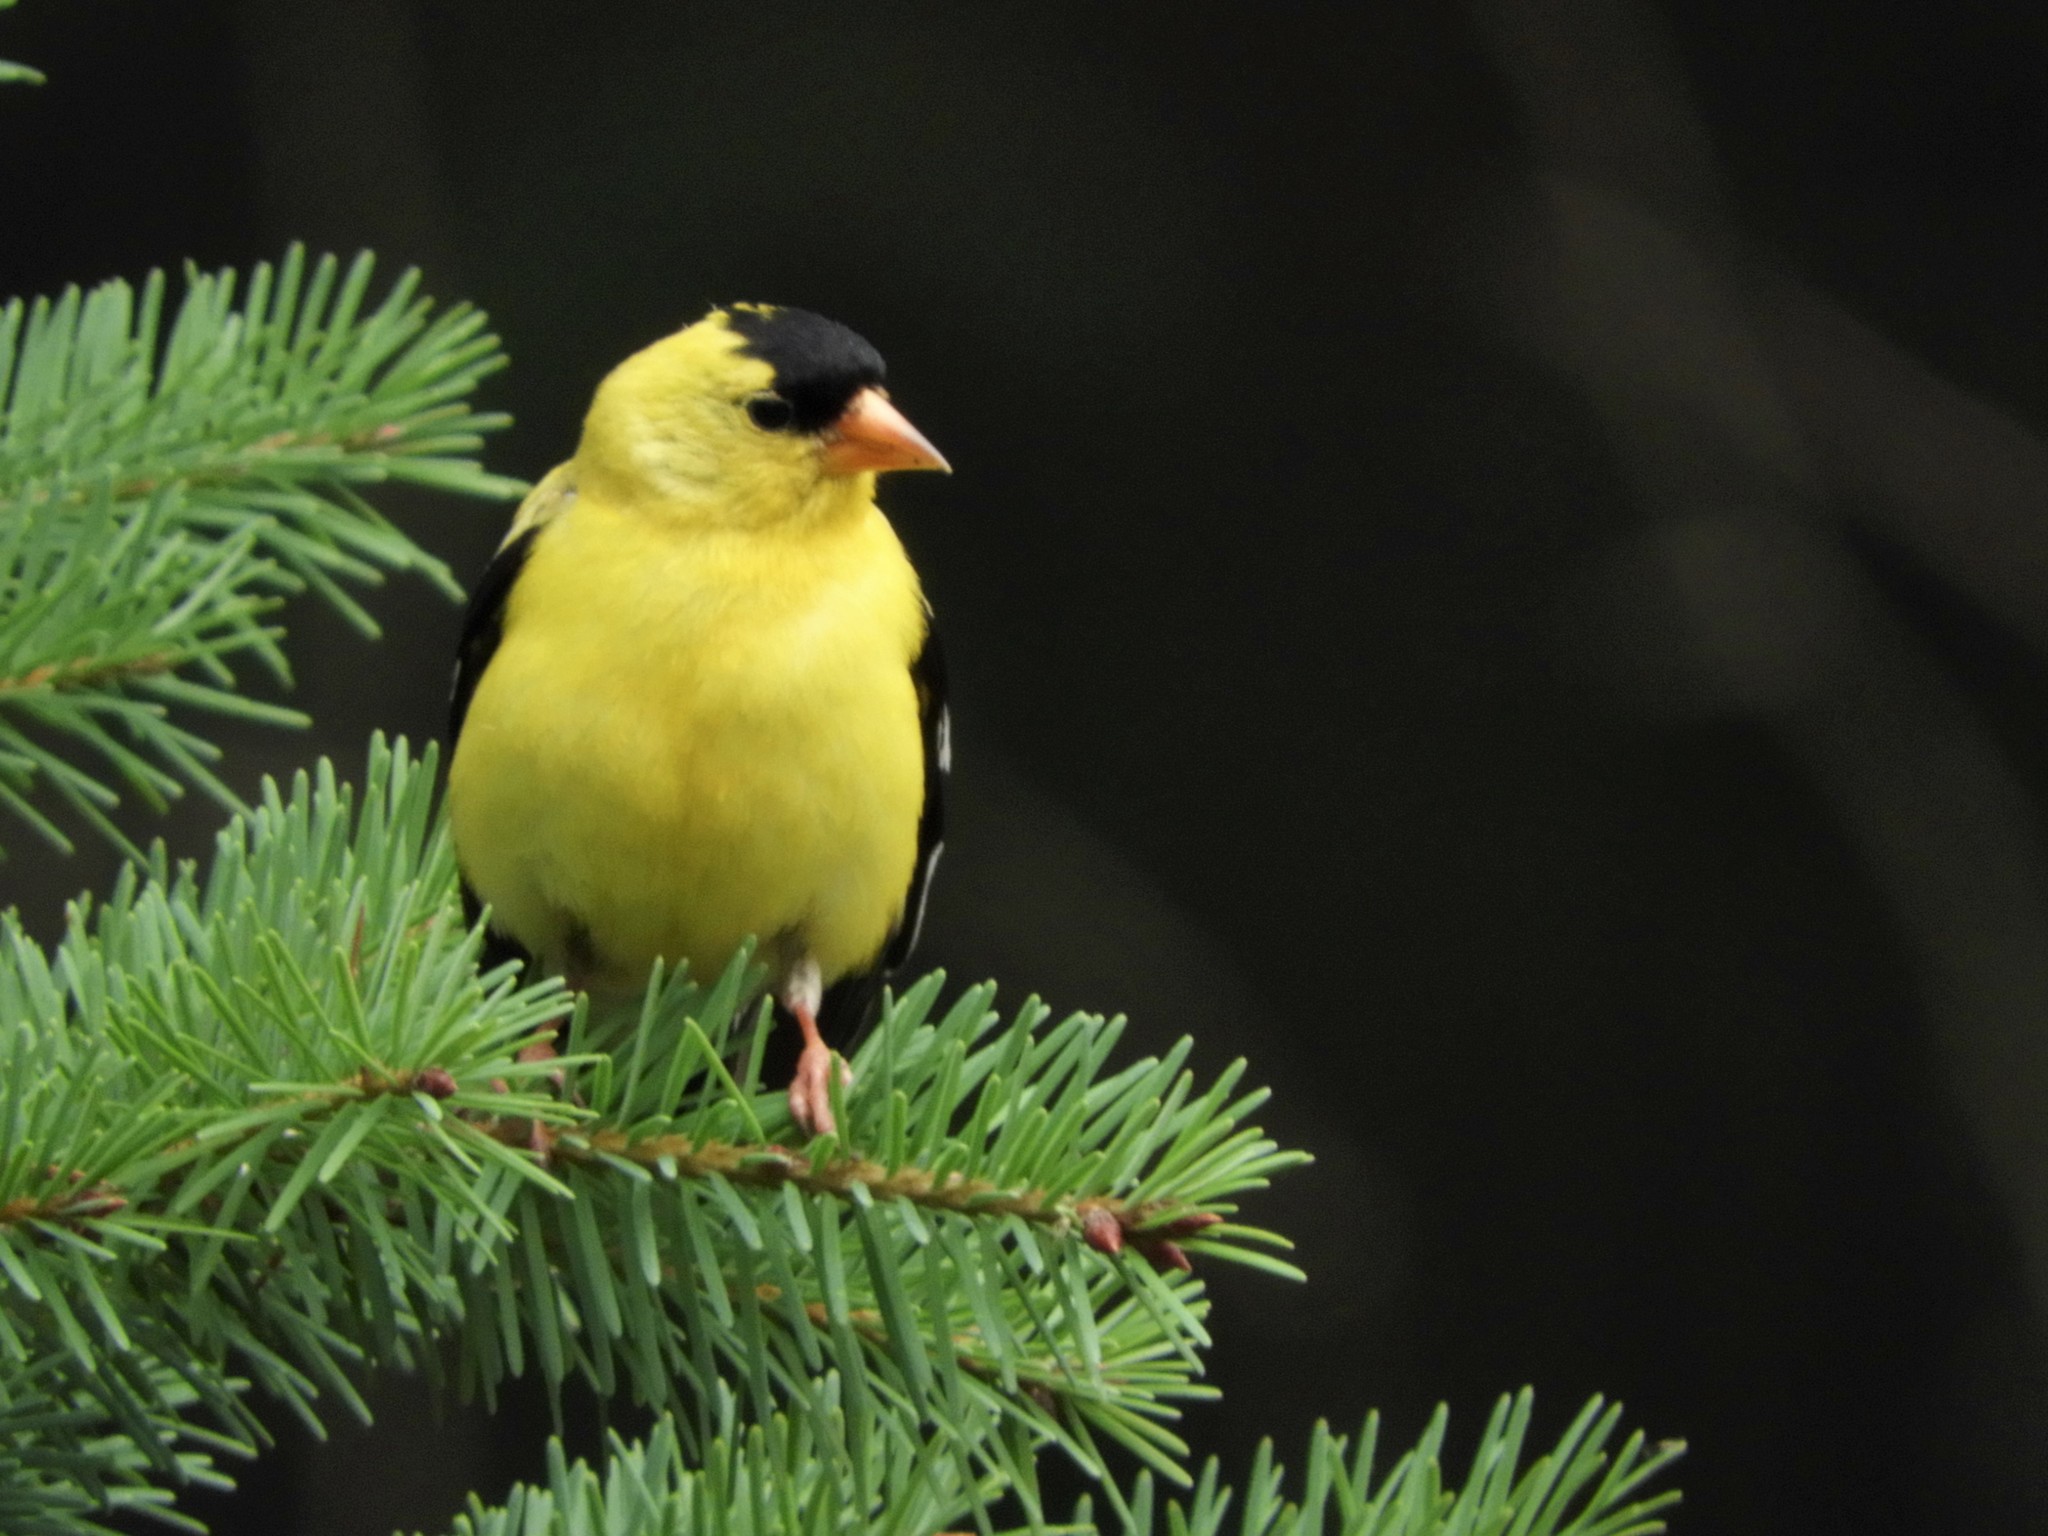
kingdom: Animalia
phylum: Chordata
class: Aves
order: Passeriformes
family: Fringillidae
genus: Spinus
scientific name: Spinus tristis
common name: American goldfinch
